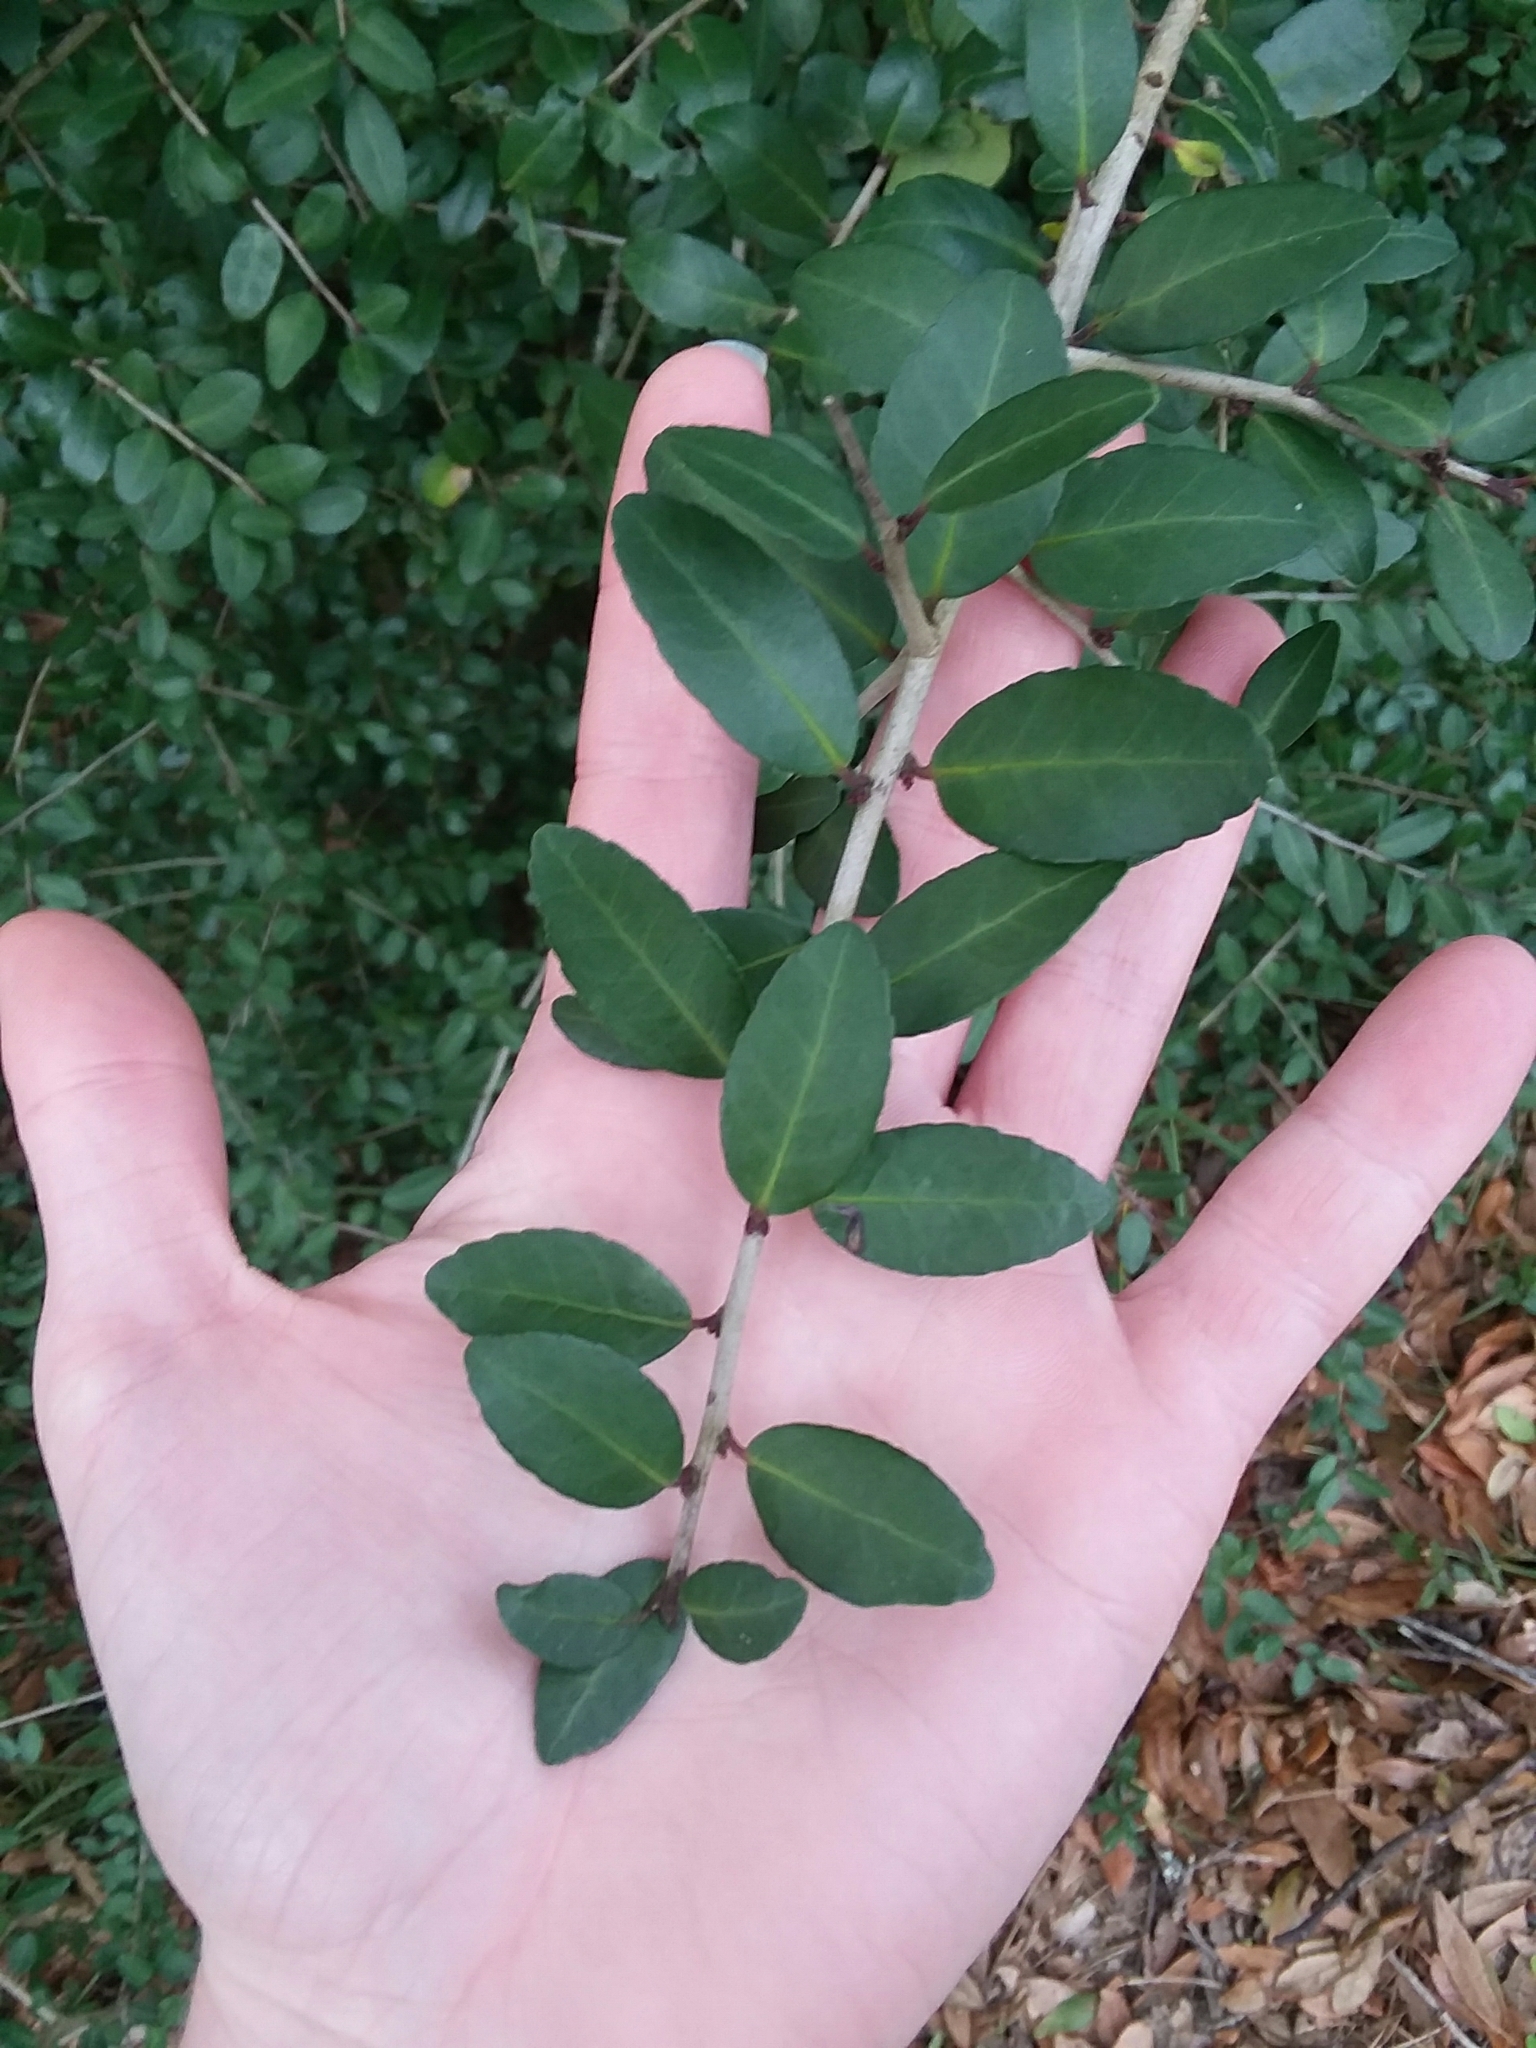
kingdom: Plantae
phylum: Tracheophyta
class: Magnoliopsida
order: Aquifoliales
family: Aquifoliaceae
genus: Ilex
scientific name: Ilex vomitoria
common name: Yaupon holly
